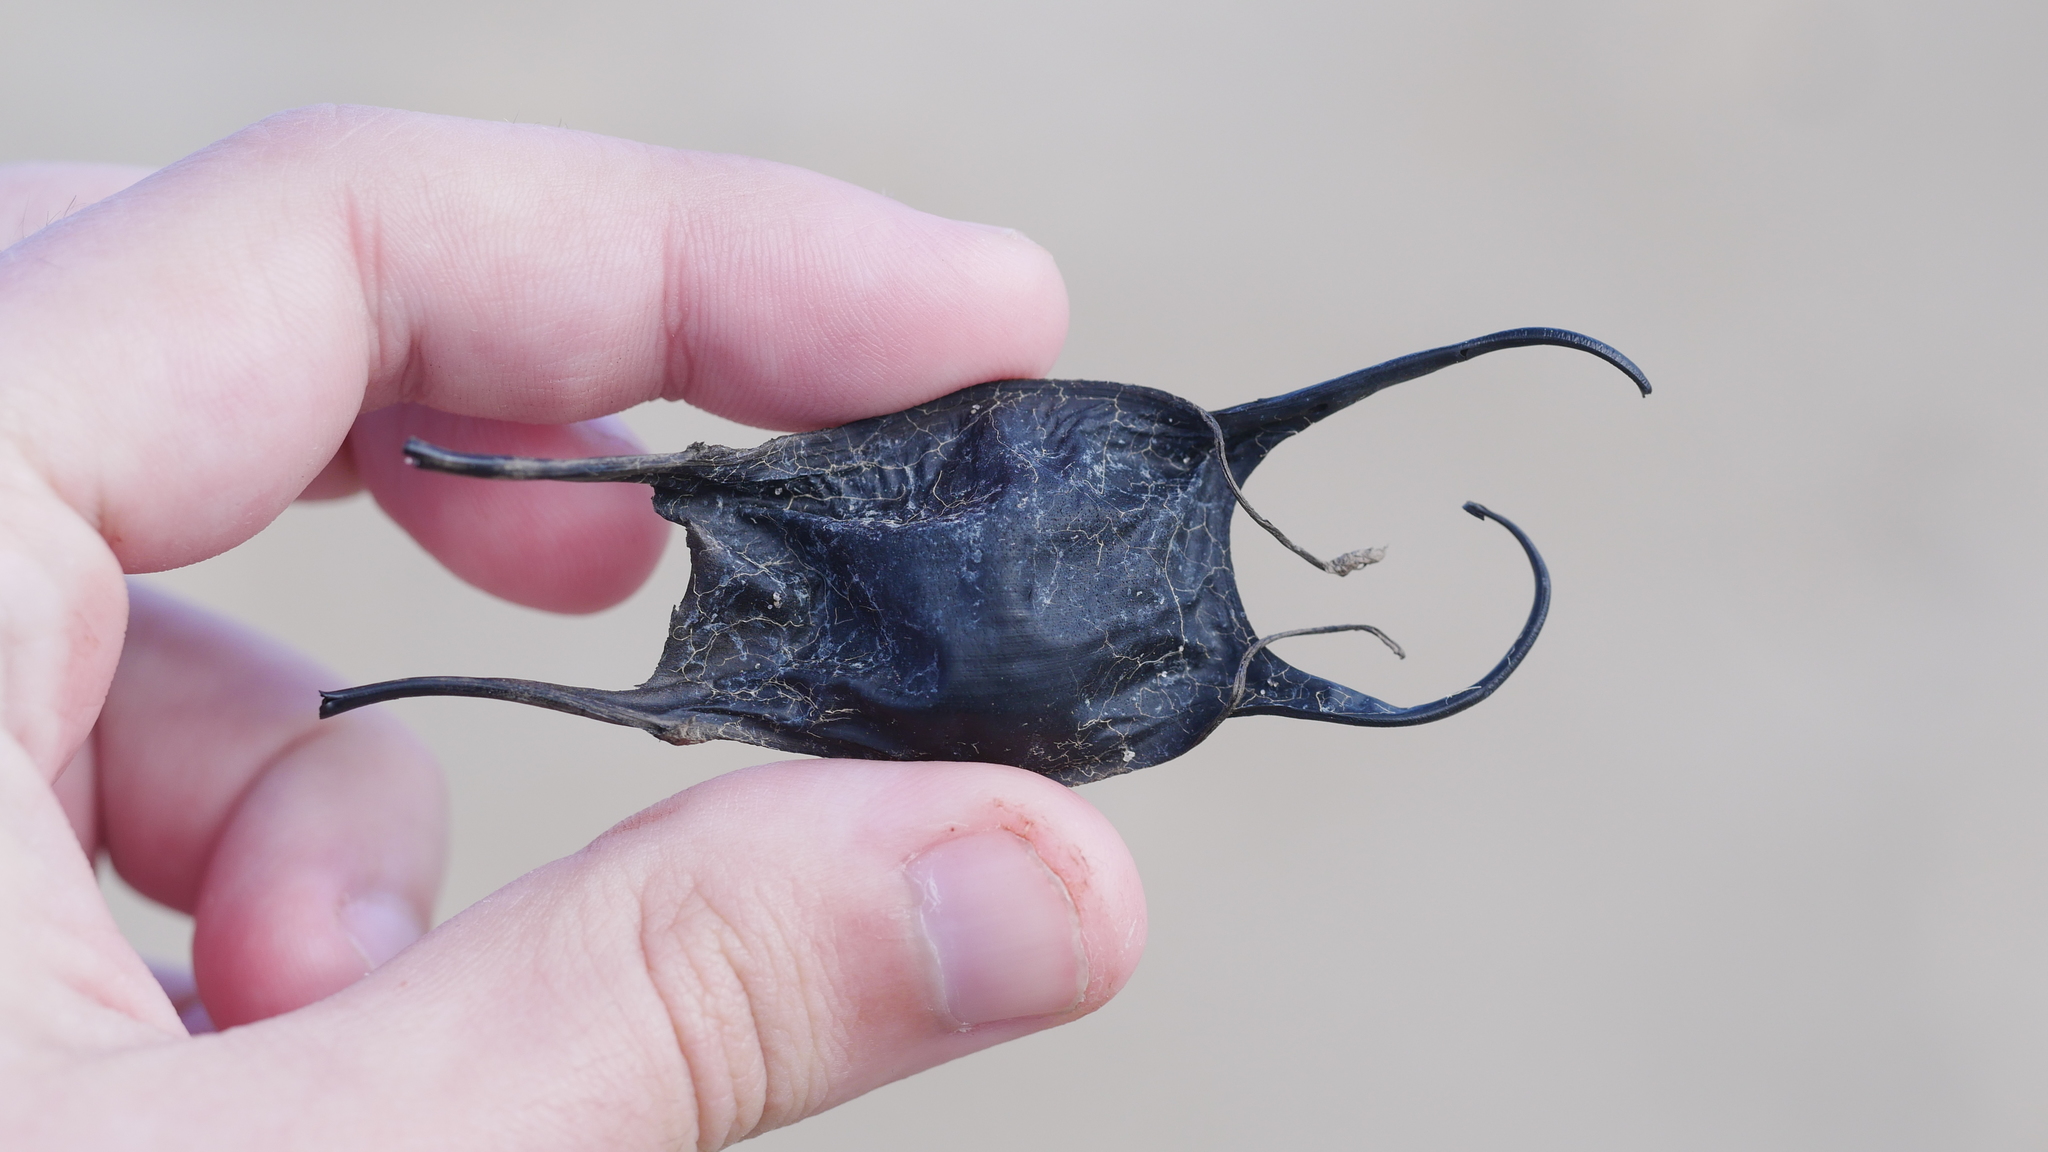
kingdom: Animalia
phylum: Chordata
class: Elasmobranchii
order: Rajiformes
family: Rajidae
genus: Leucoraja
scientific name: Leucoraja garmani
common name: Rosette skate
